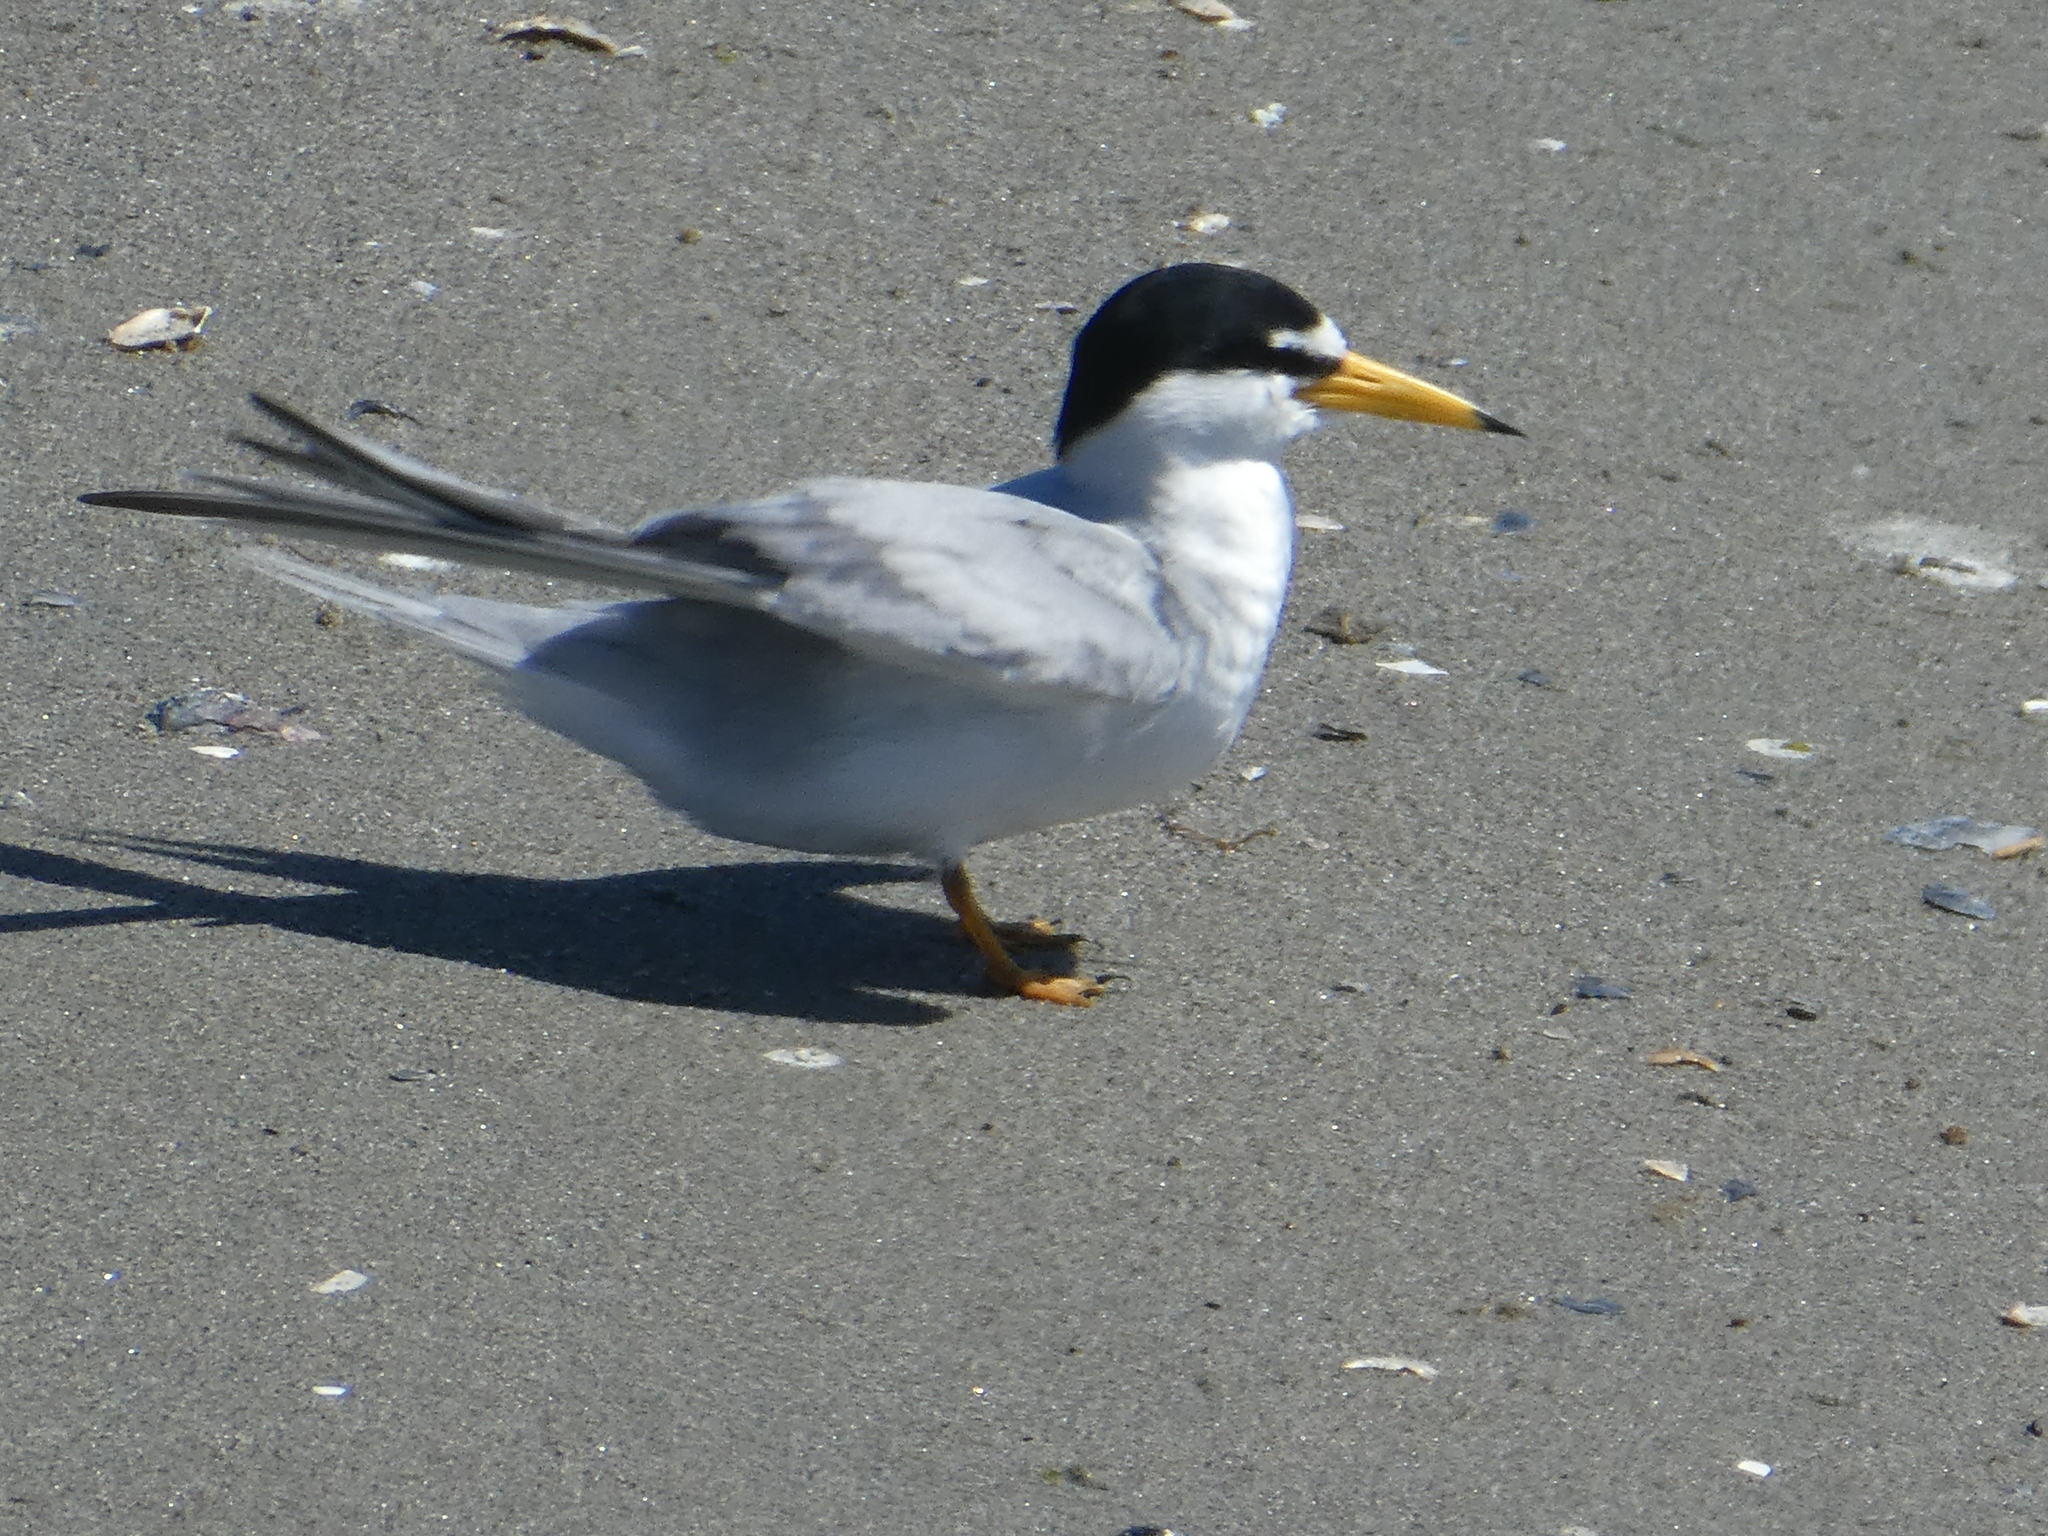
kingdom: Animalia
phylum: Chordata
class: Aves
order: Charadriiformes
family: Laridae
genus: Sternula
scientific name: Sternula antillarum
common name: Least tern
